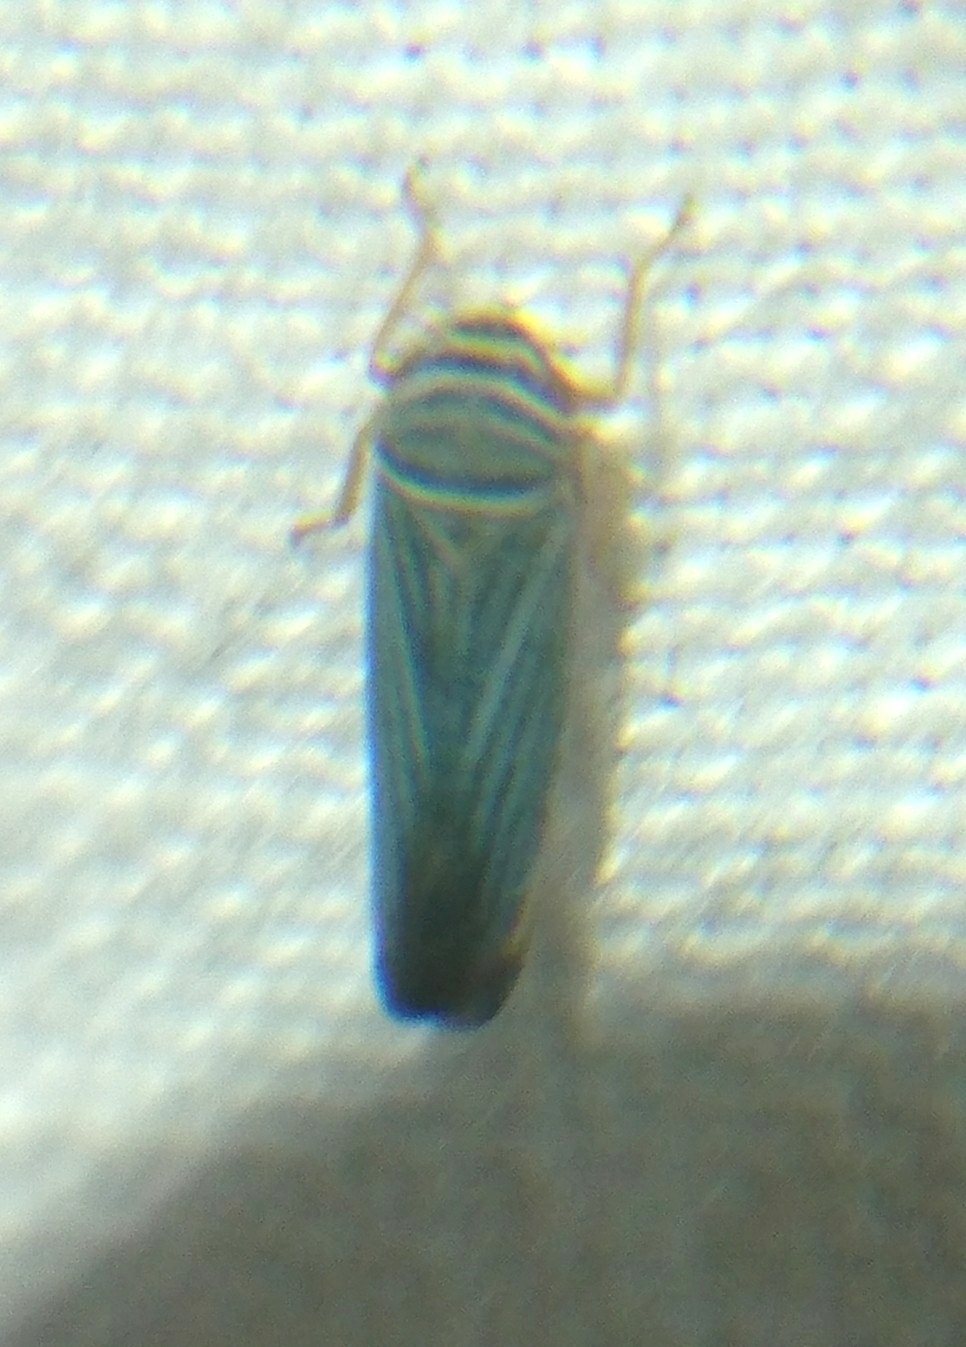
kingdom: Animalia
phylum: Arthropoda
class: Insecta
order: Hemiptera
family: Cicadellidae
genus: Tylozygus
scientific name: Tylozygus bifidus
